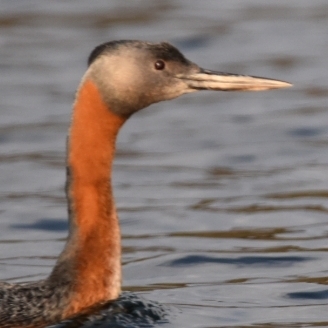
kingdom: Animalia
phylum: Chordata
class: Aves
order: Podicipediformes
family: Podicipedidae
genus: Podiceps
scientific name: Podiceps major
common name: Great grebe
